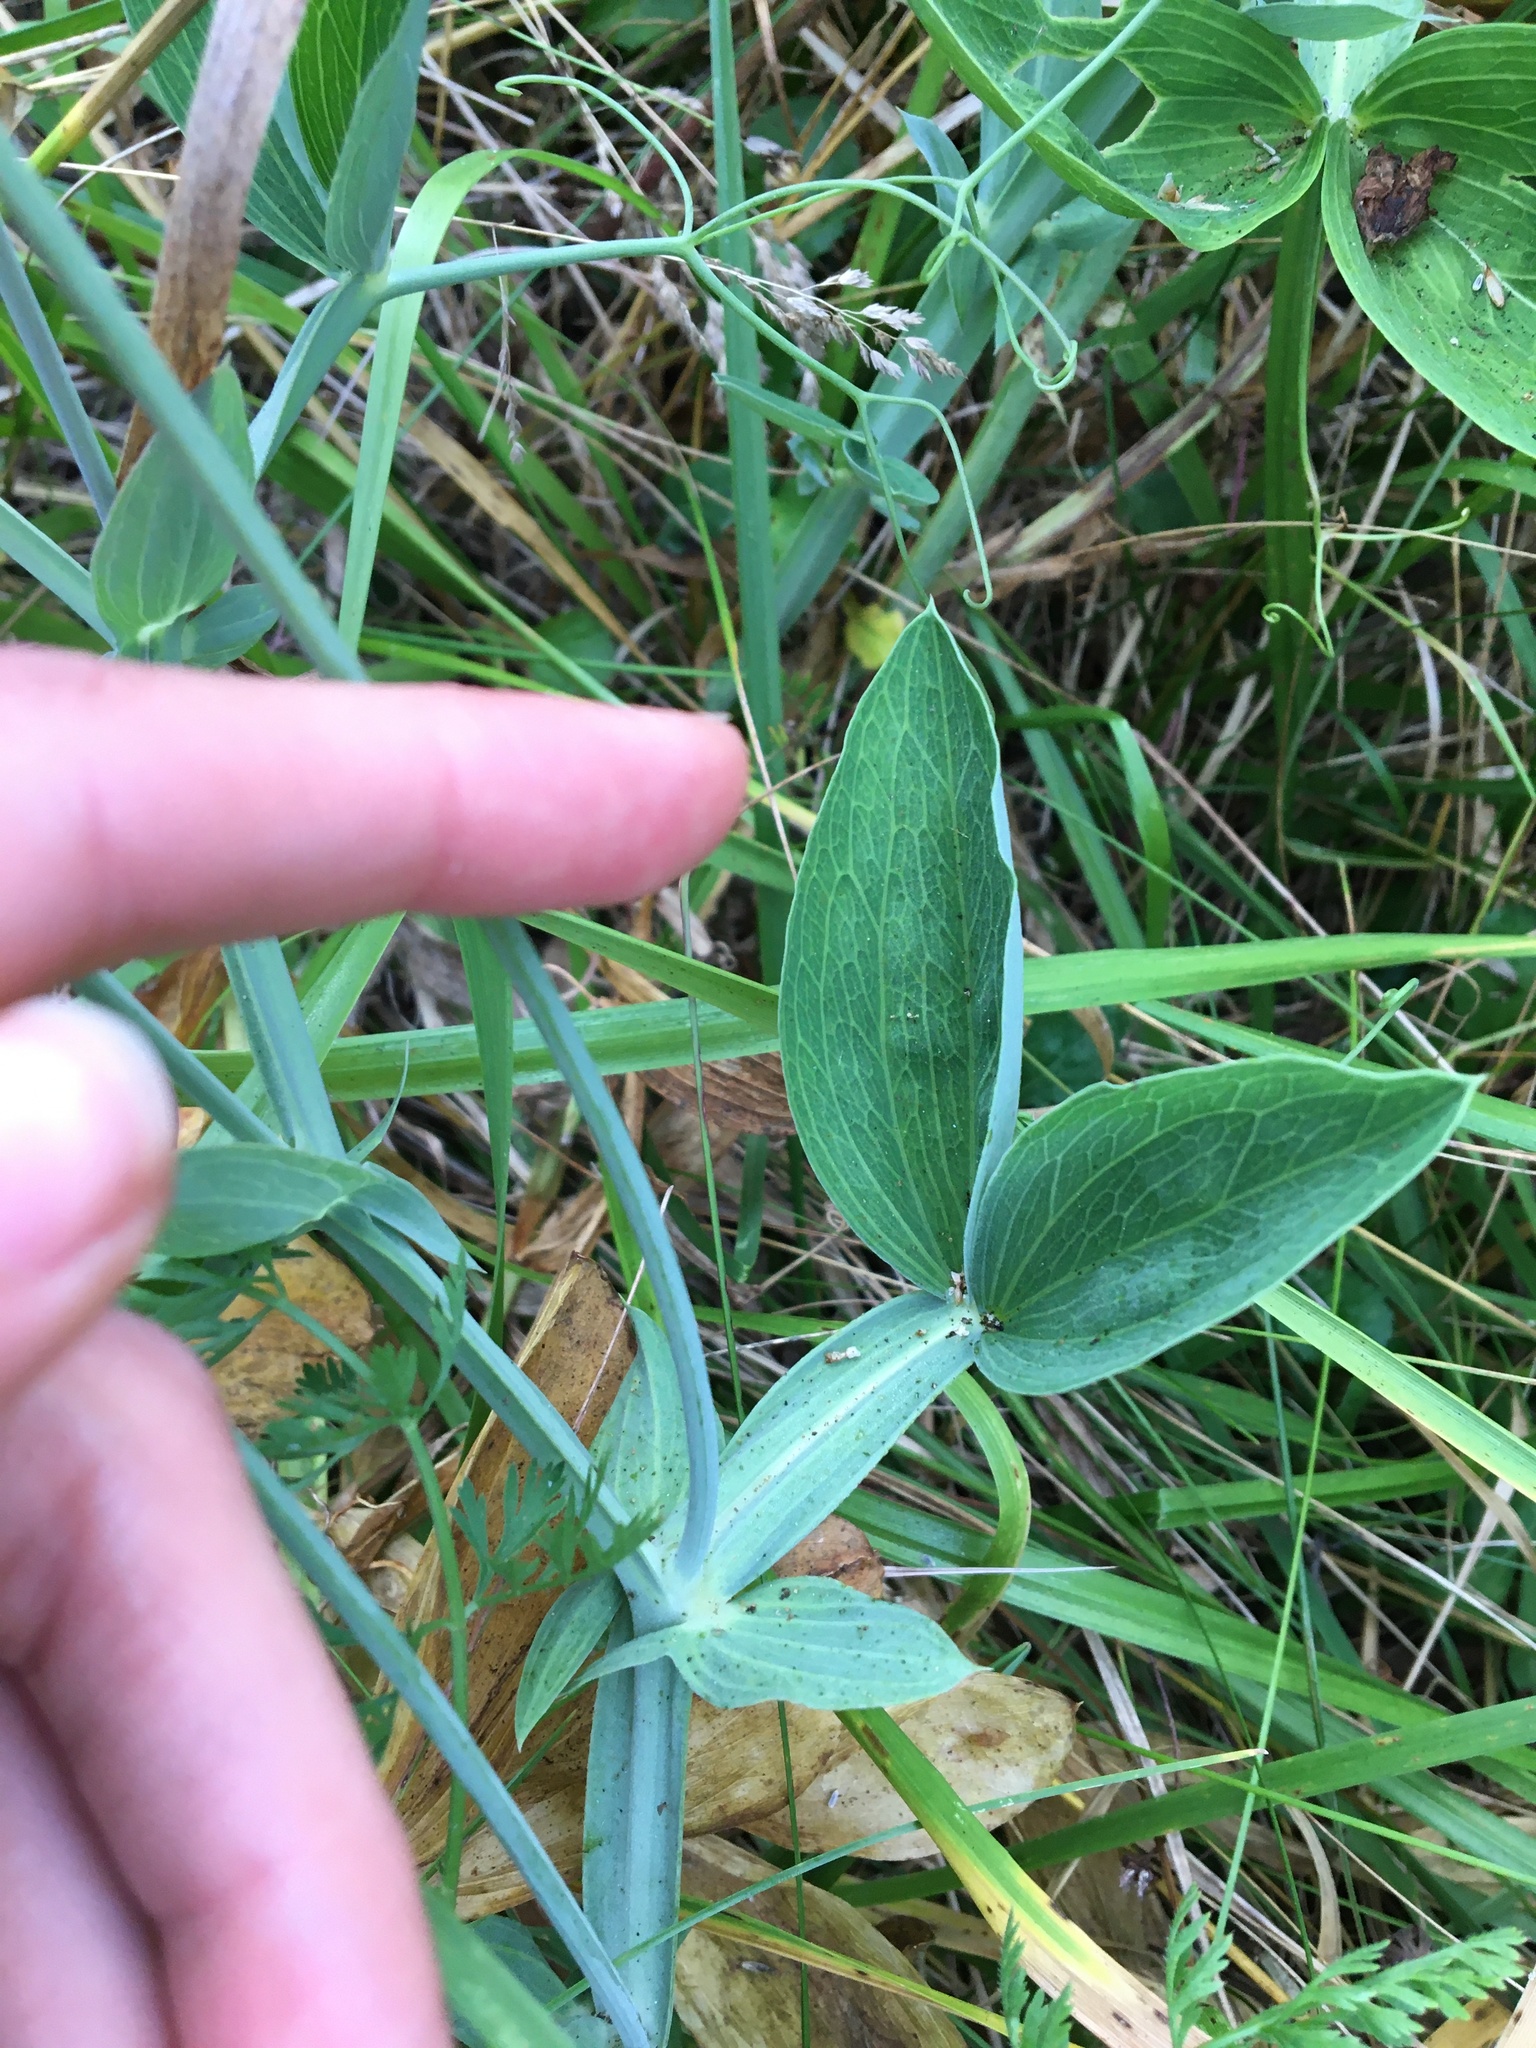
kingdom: Plantae
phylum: Tracheophyta
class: Magnoliopsida
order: Fabales
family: Fabaceae
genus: Lathyrus
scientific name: Lathyrus latifolius
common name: Perennial pea
